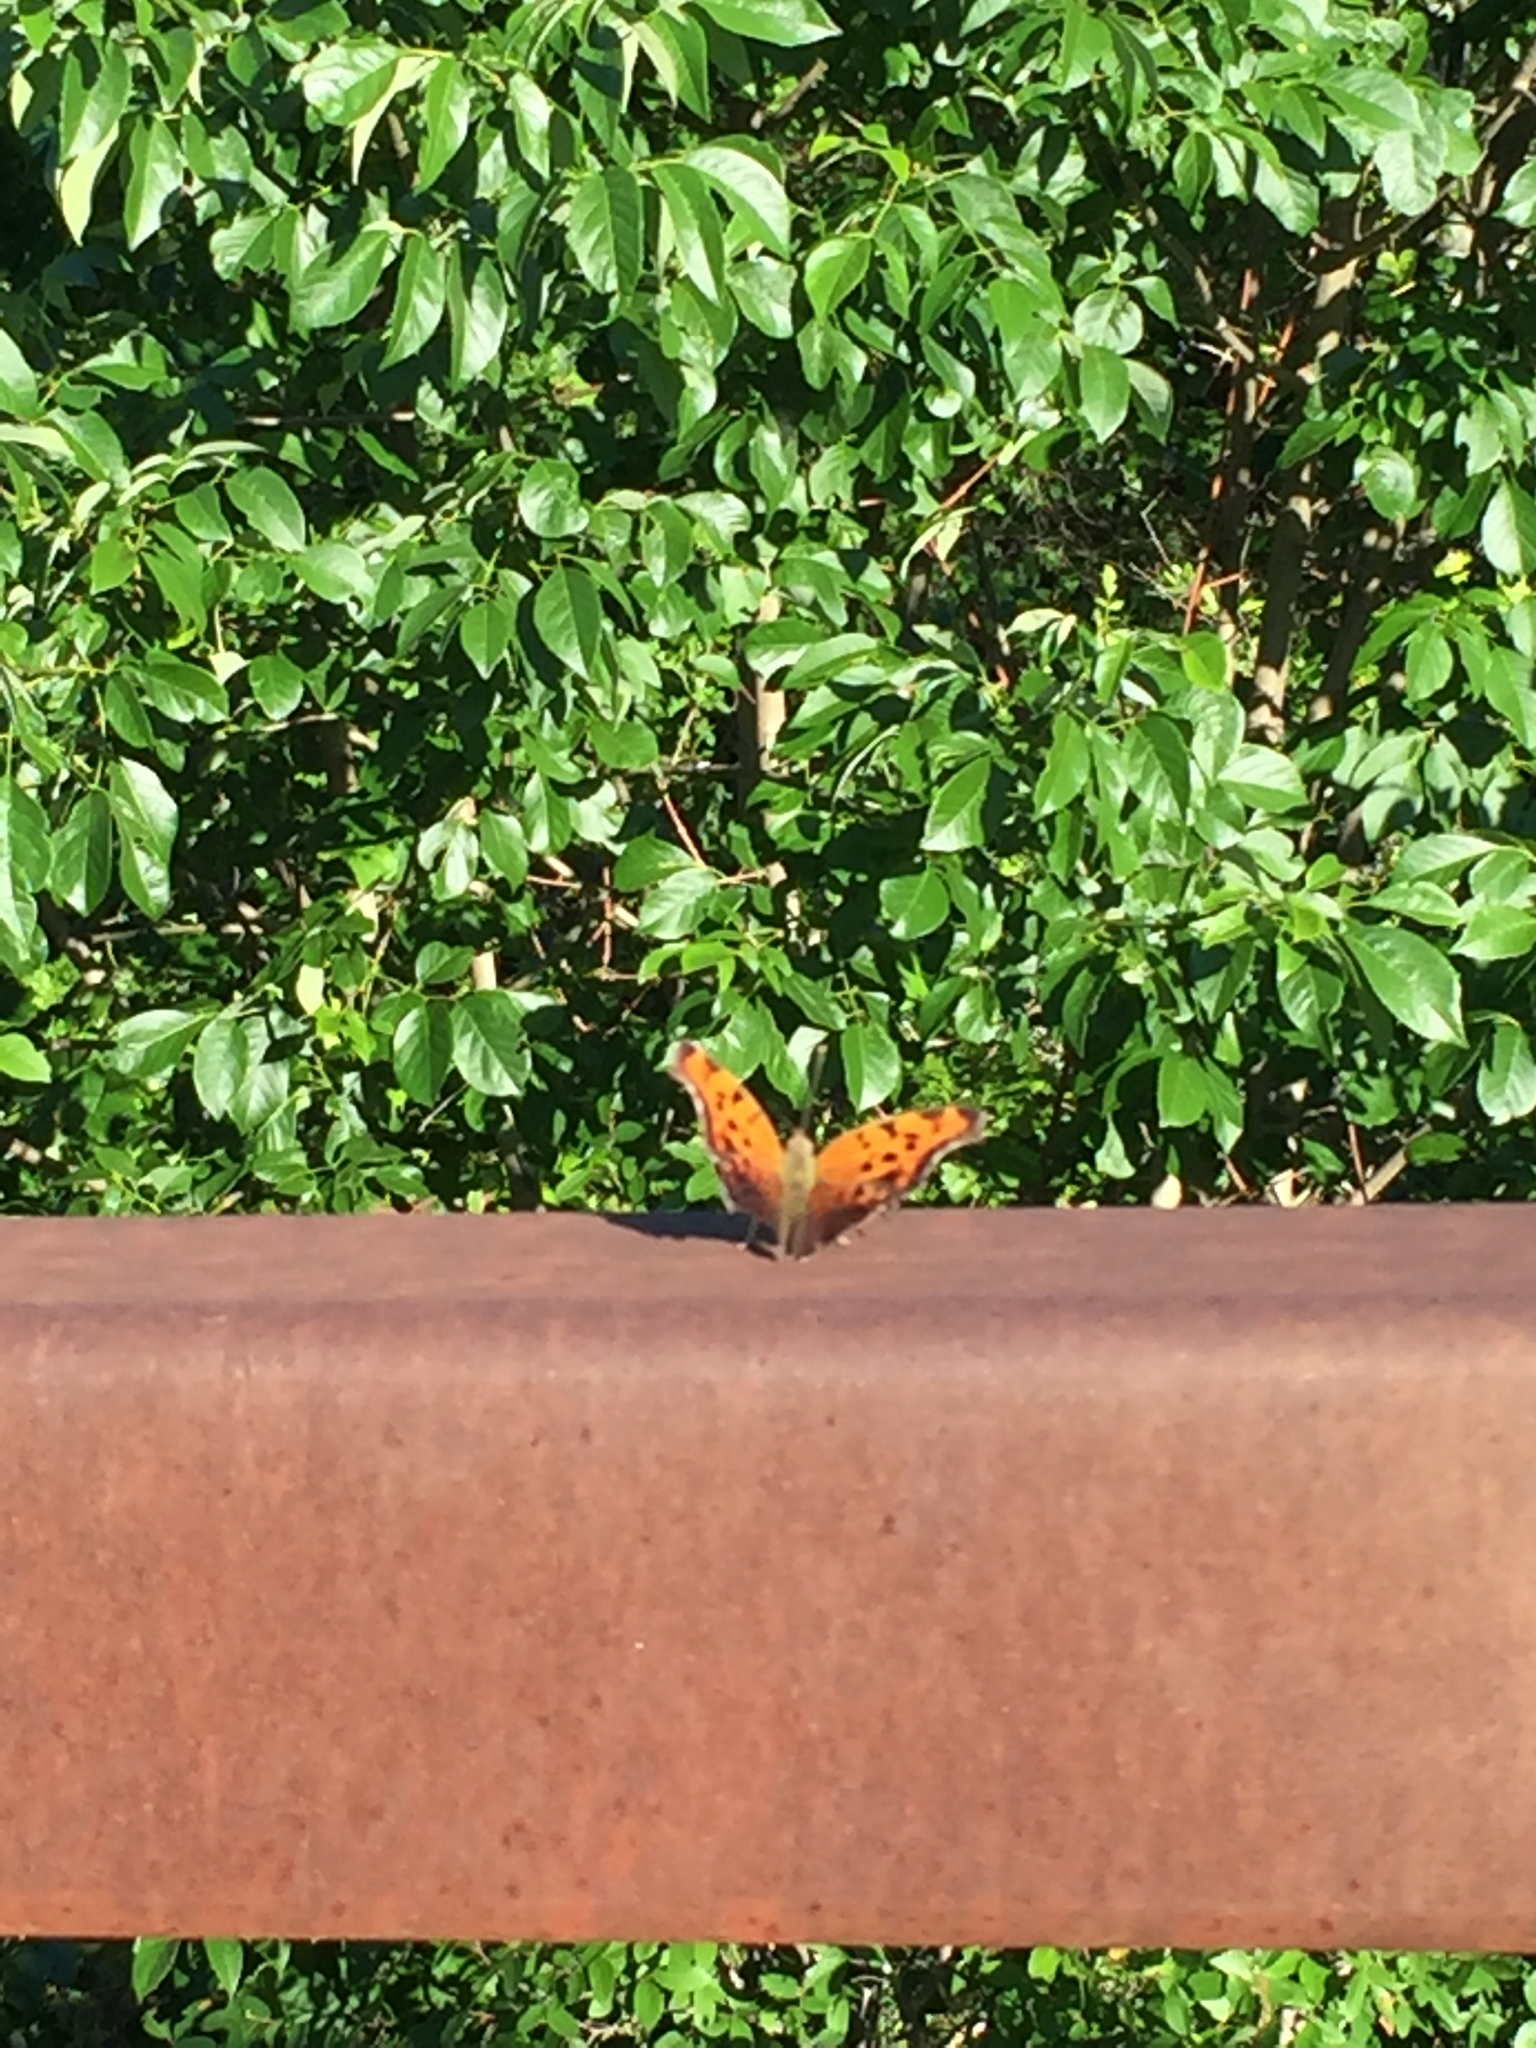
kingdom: Animalia
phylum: Arthropoda
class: Insecta
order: Lepidoptera
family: Nymphalidae
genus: Polygonia
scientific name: Polygonia interrogationis
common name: Question mark
